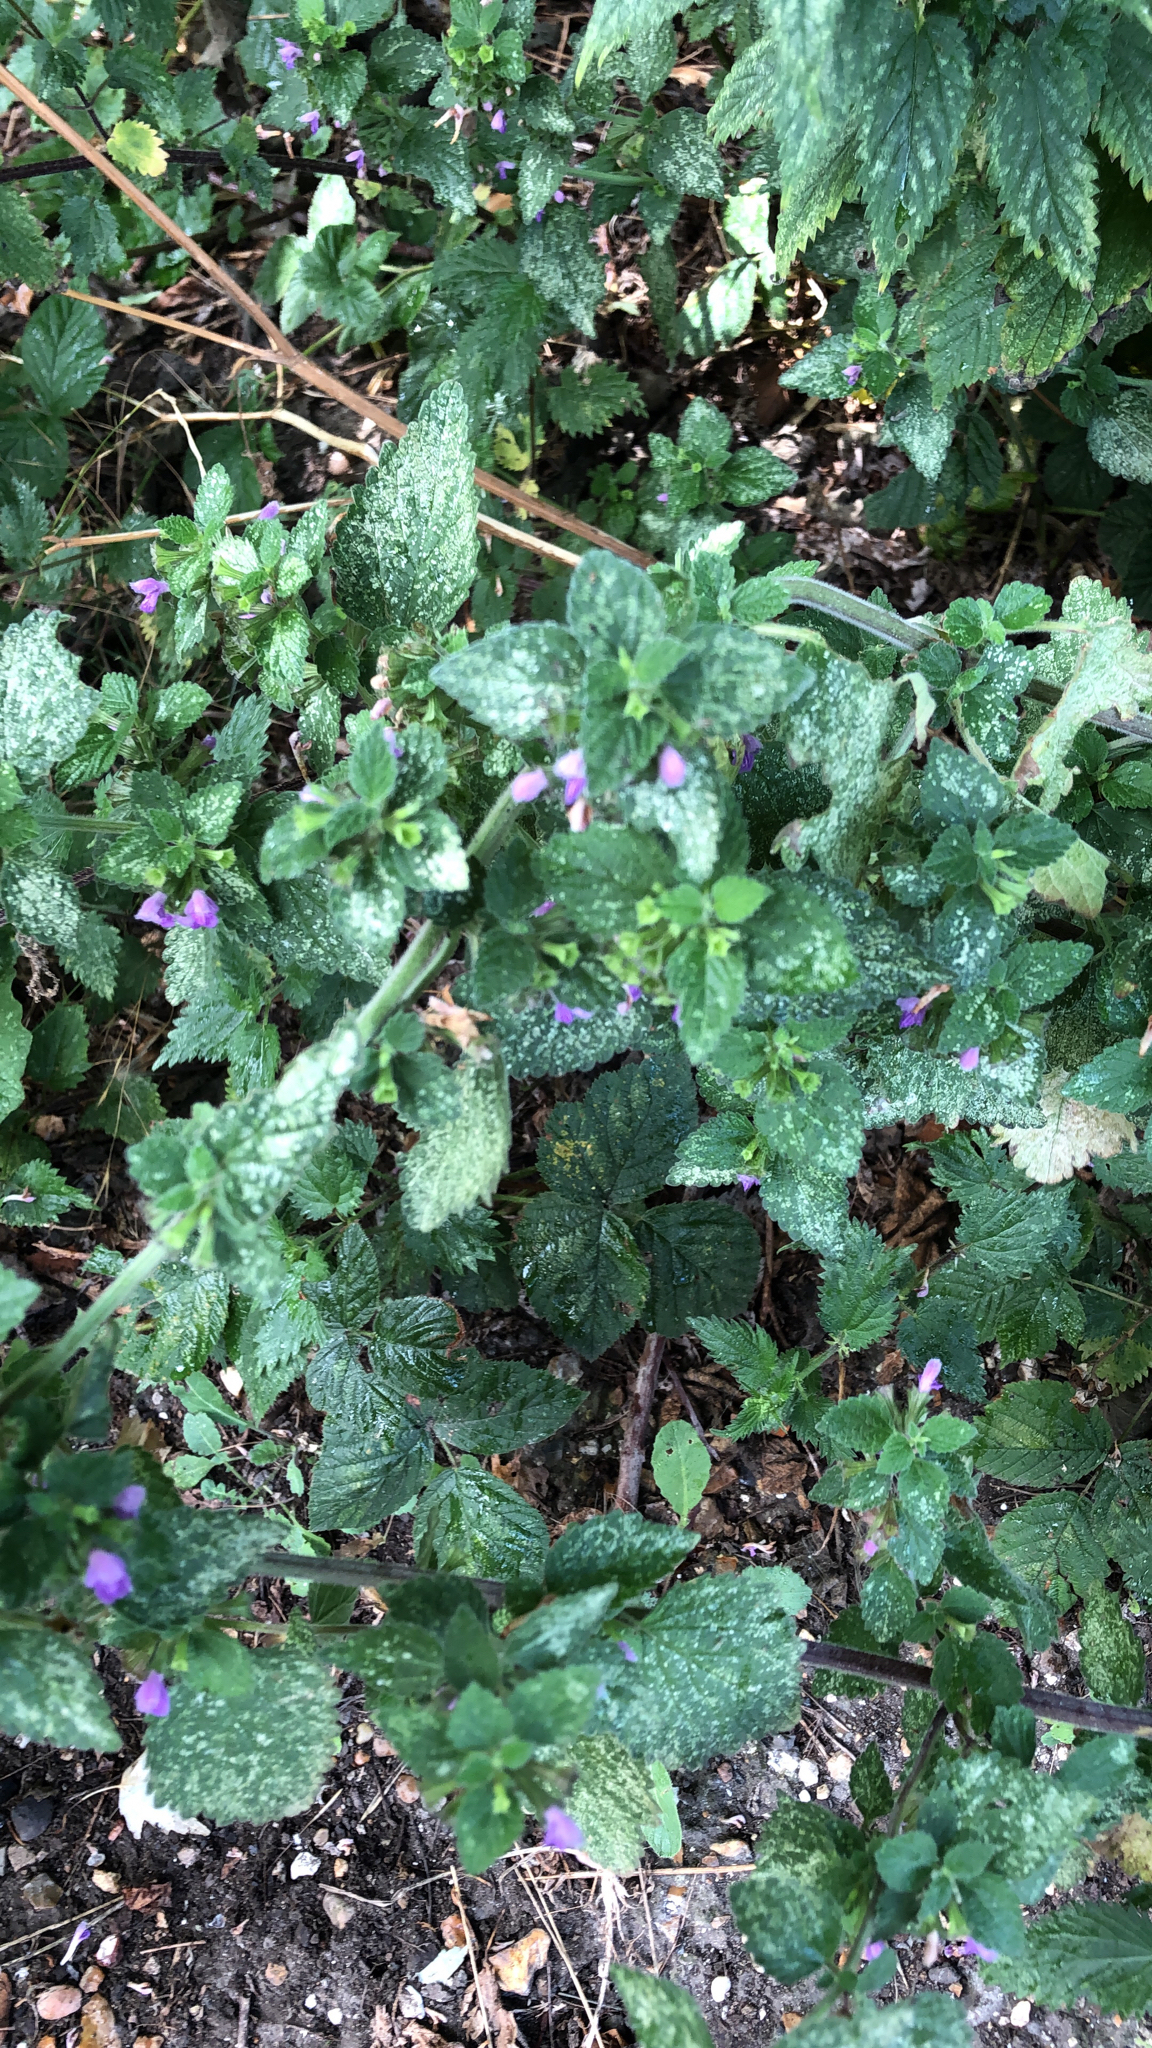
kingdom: Plantae
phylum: Tracheophyta
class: Magnoliopsida
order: Lamiales
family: Lamiaceae
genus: Ballota
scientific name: Ballota nigra
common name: Black horehound
